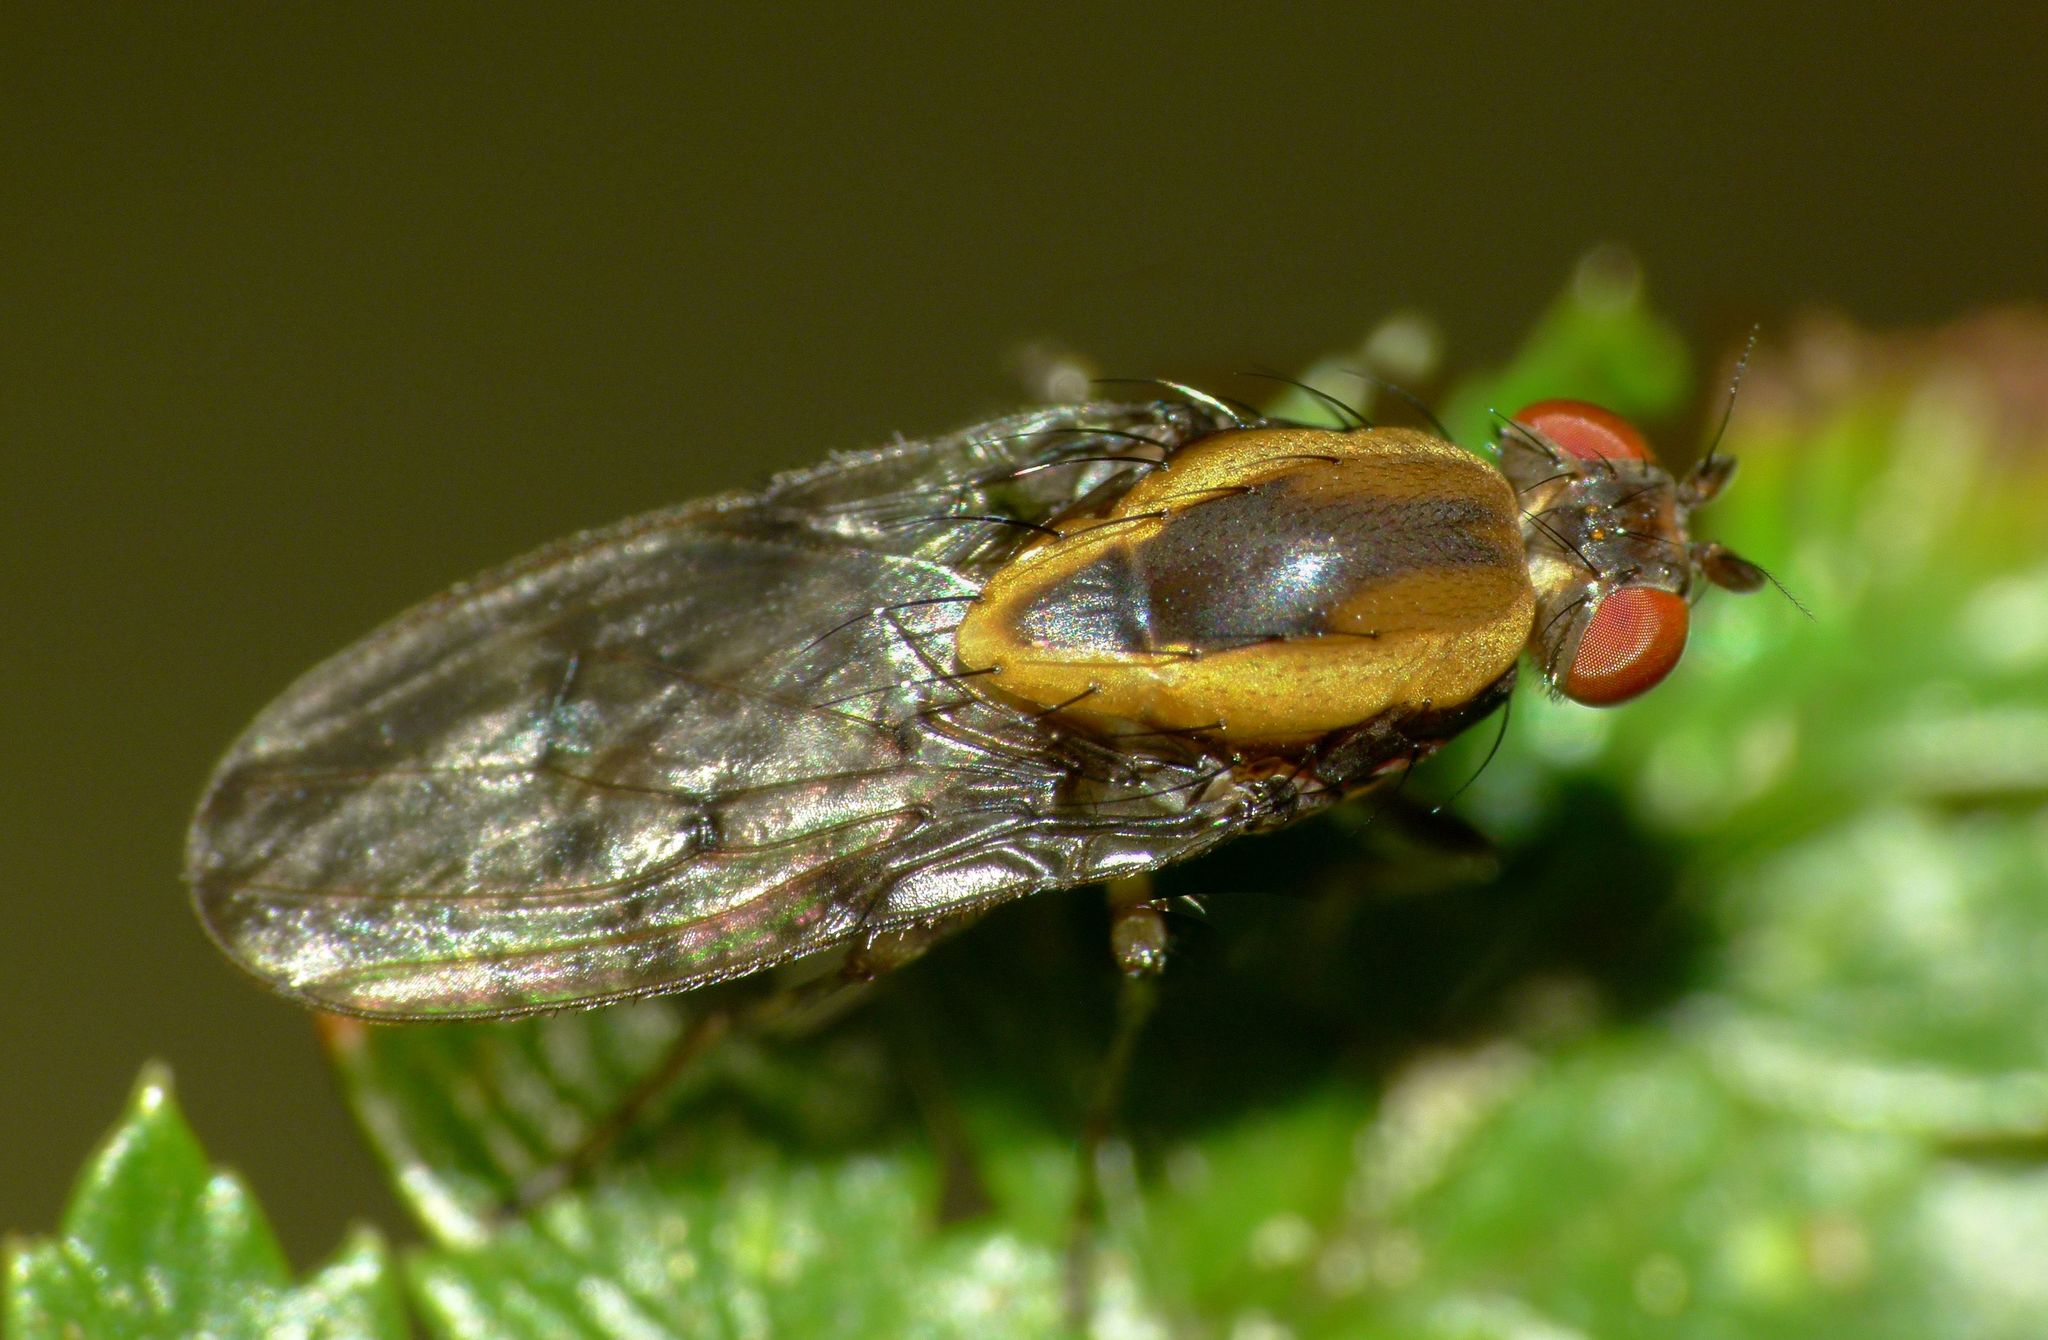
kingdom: Animalia
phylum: Arthropoda
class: Insecta
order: Diptera
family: Heleomyzidae
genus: Allophylopsis
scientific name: Allophylopsis scutellata
